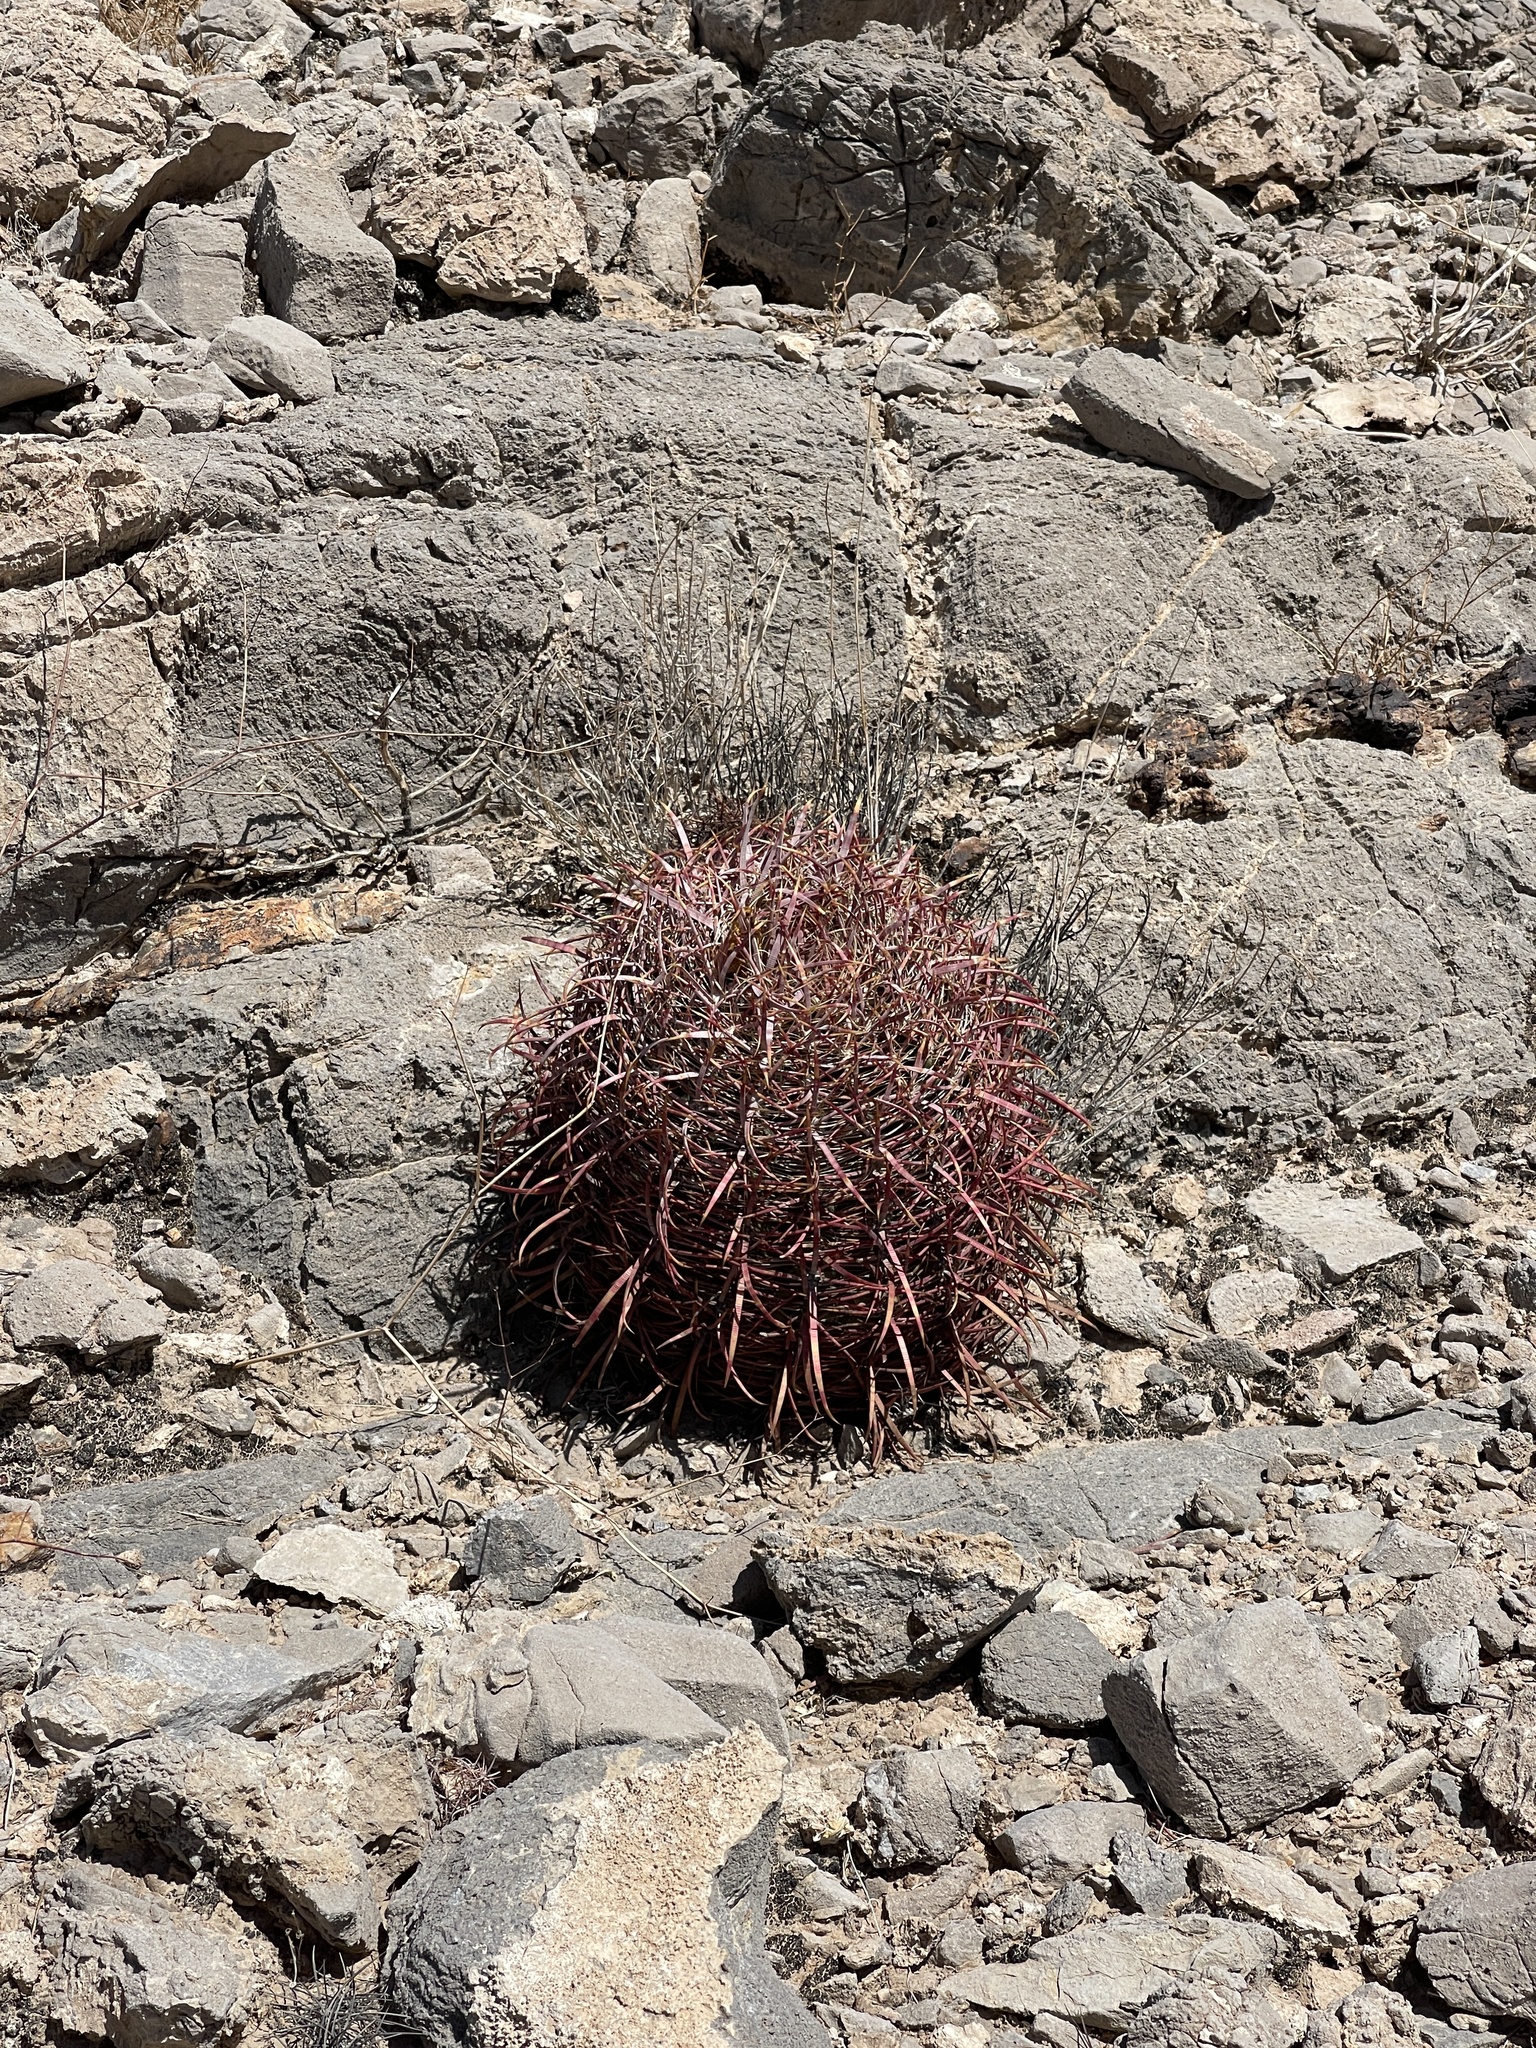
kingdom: Plantae
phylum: Tracheophyta
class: Magnoliopsida
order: Caryophyllales
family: Cactaceae
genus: Ferocactus
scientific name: Ferocactus cylindraceus
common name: California barrel cactus
